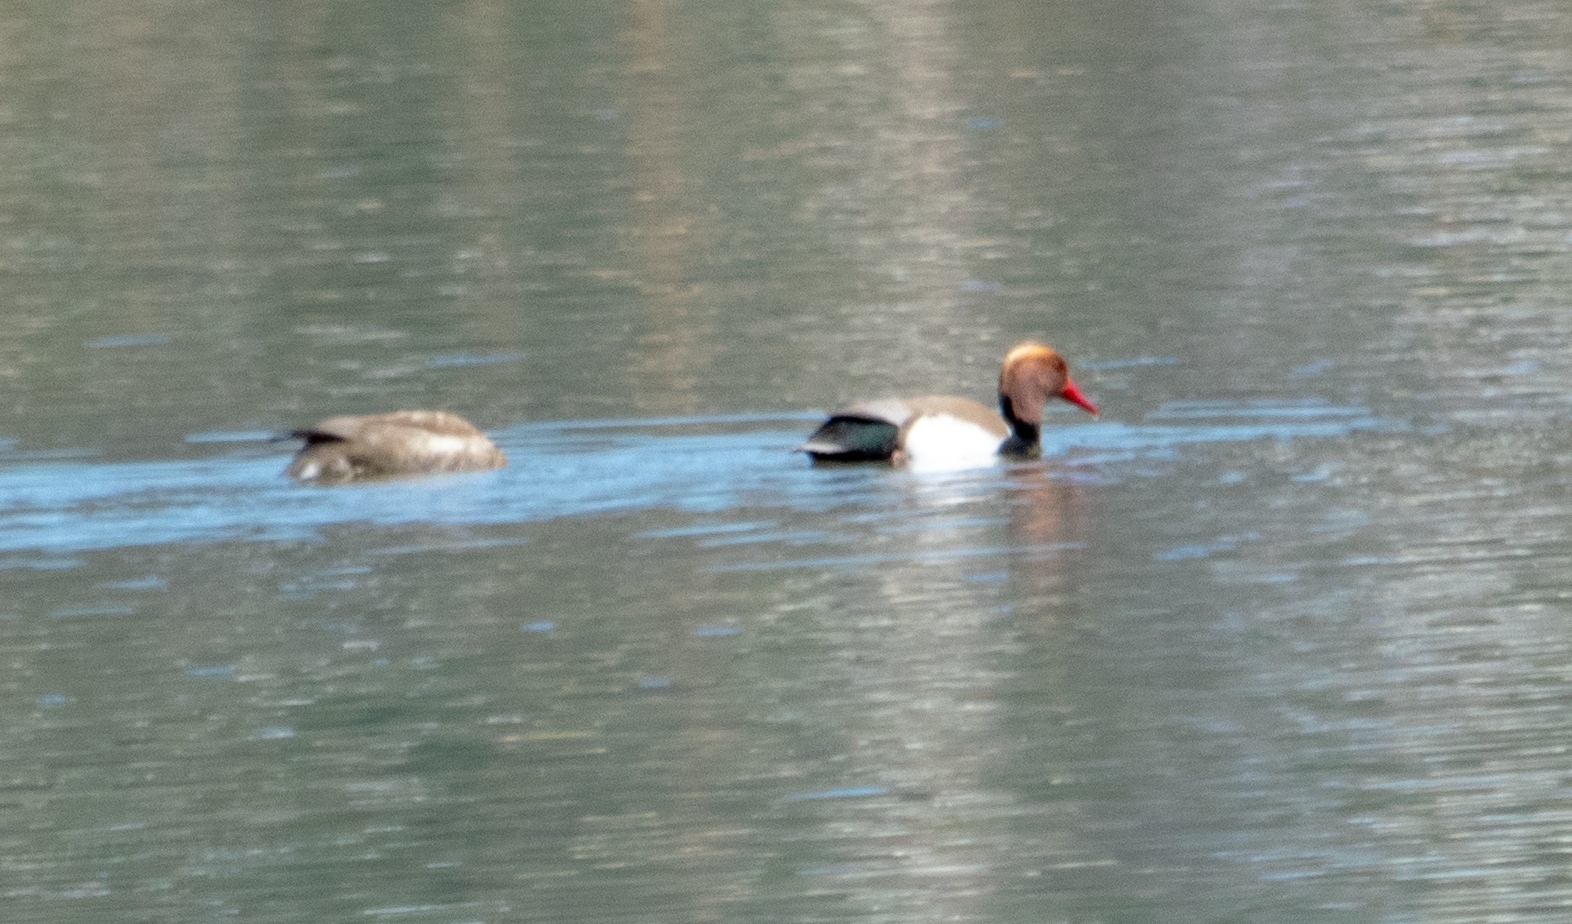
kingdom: Animalia
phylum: Chordata
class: Aves
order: Anseriformes
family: Anatidae
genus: Netta
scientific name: Netta rufina
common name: Red-crested pochard
